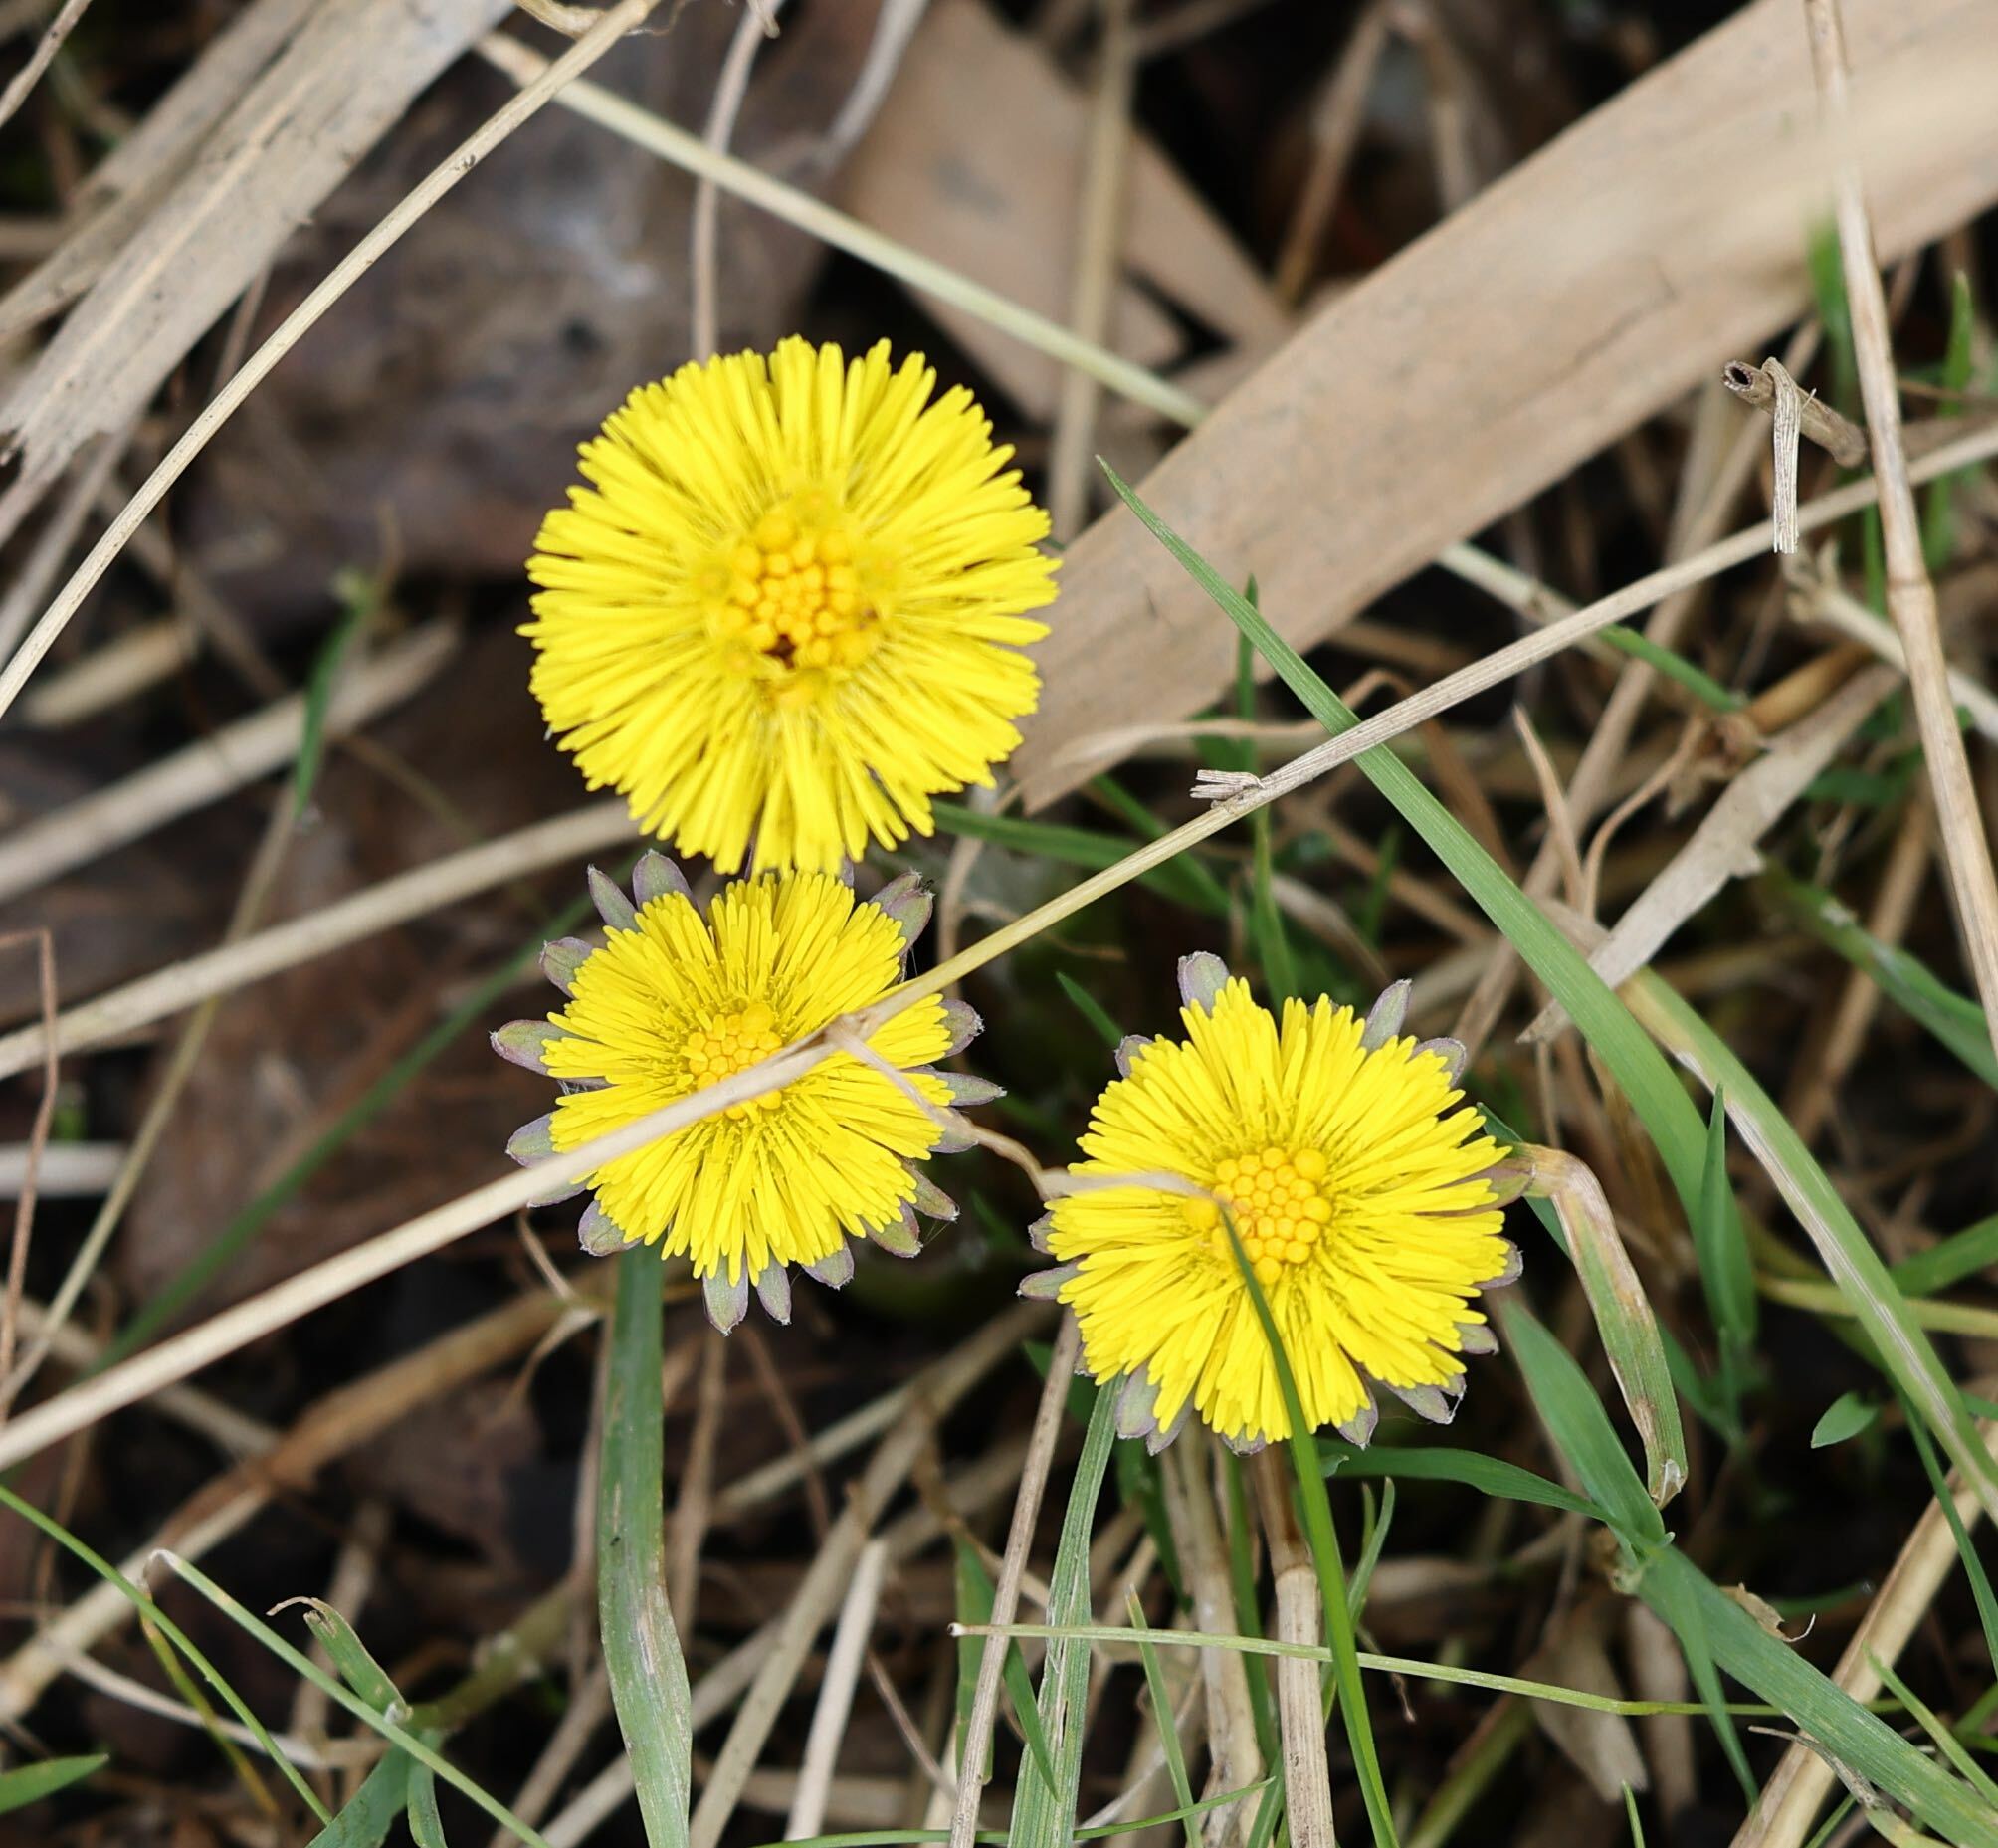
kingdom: Plantae
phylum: Tracheophyta
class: Magnoliopsida
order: Asterales
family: Asteraceae
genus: Tussilago
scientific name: Tussilago farfara
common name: Coltsfoot
